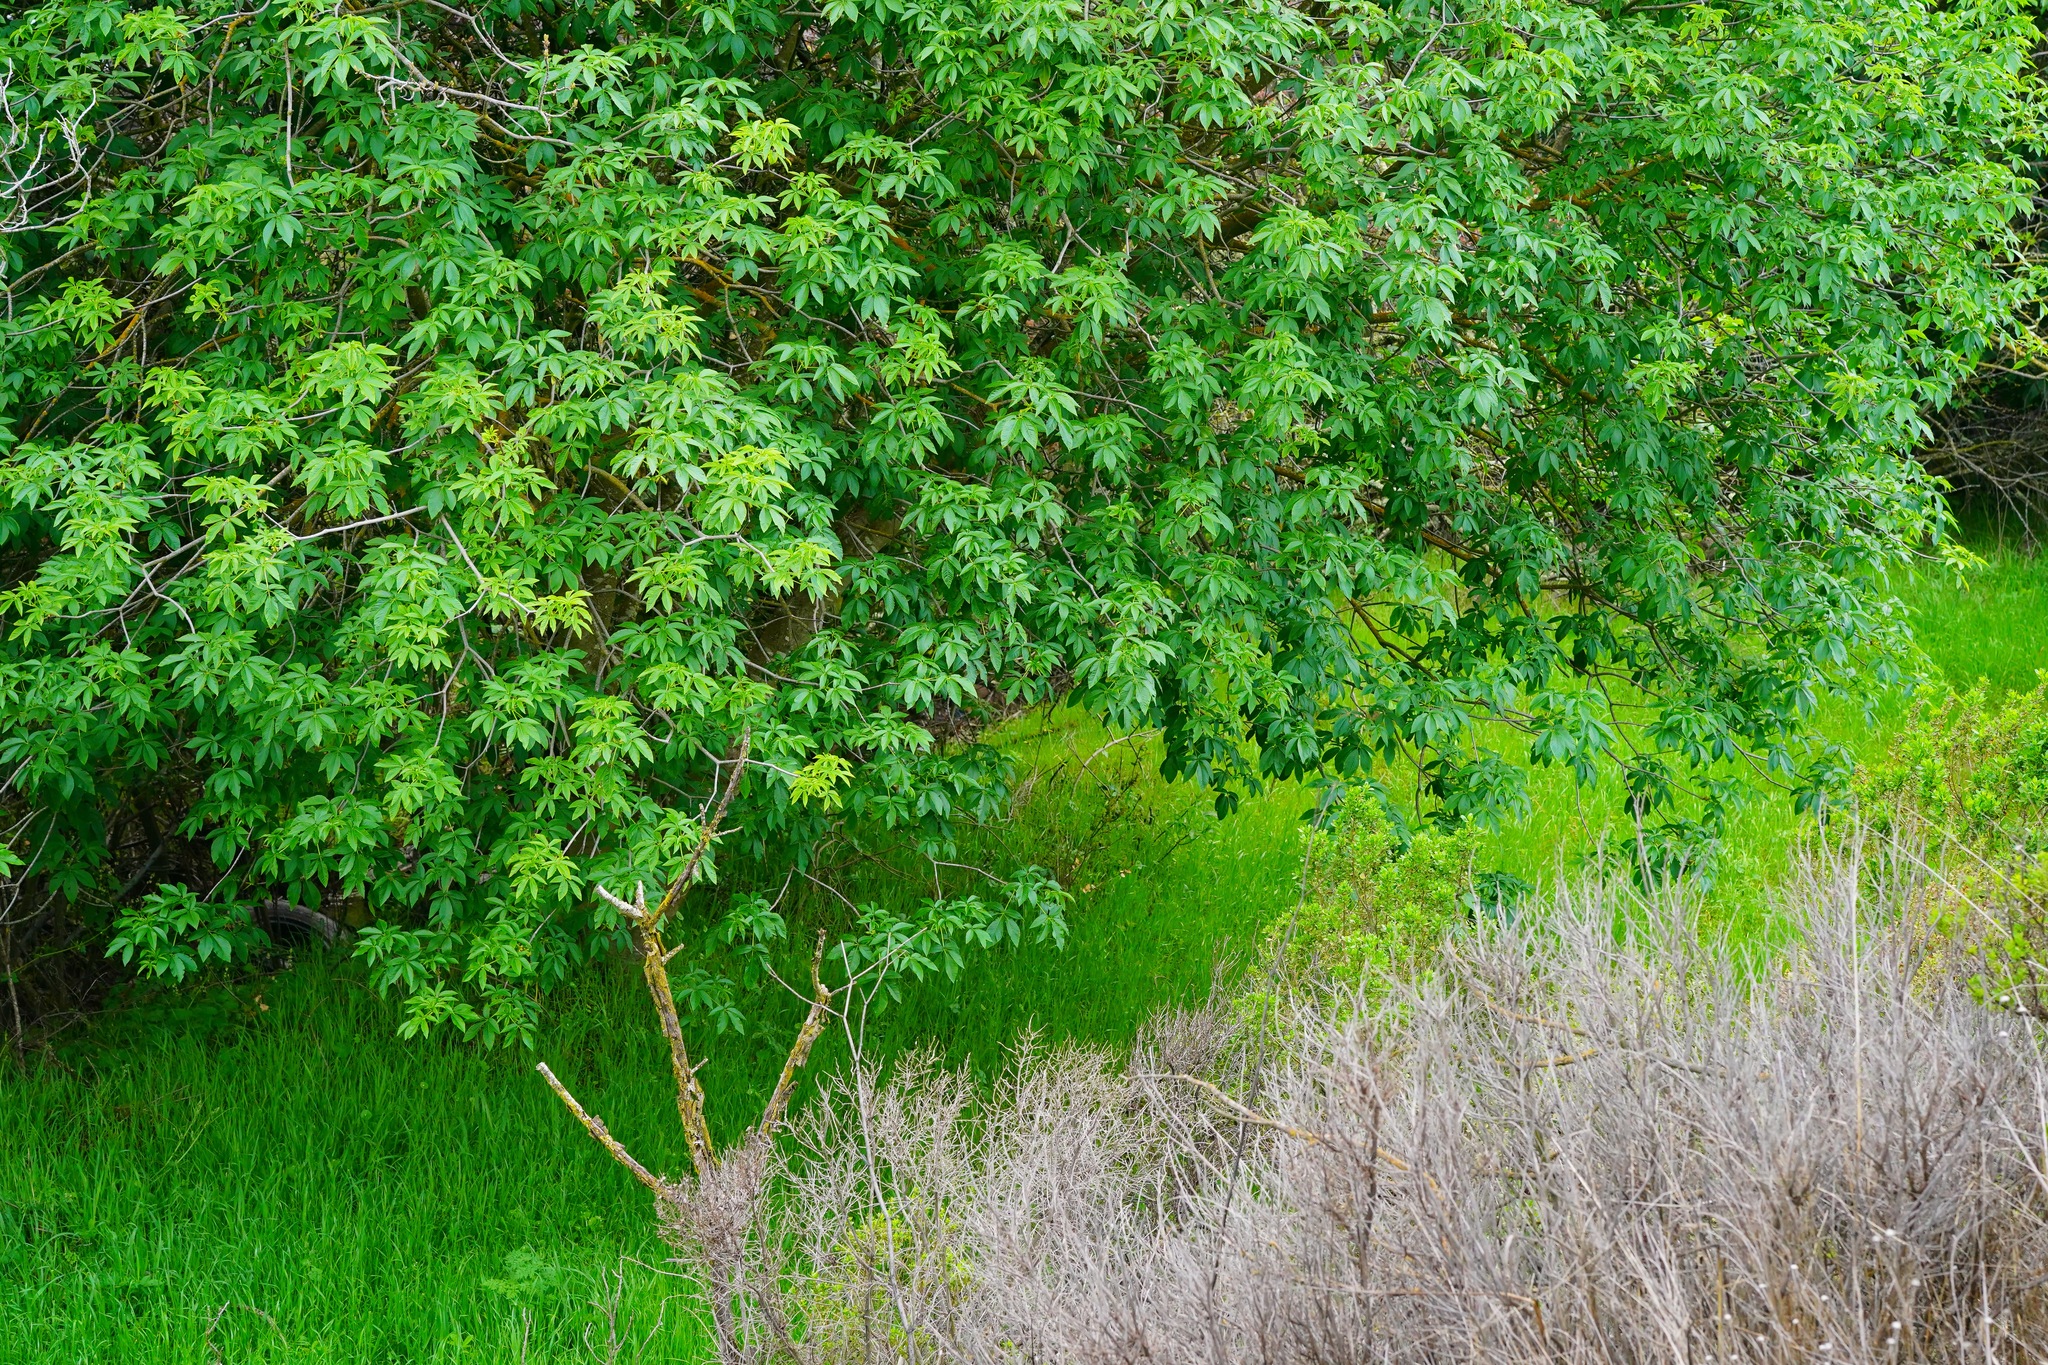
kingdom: Plantae
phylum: Tracheophyta
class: Magnoliopsida
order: Sapindales
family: Sapindaceae
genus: Aesculus
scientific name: Aesculus californica
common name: California buckeye
